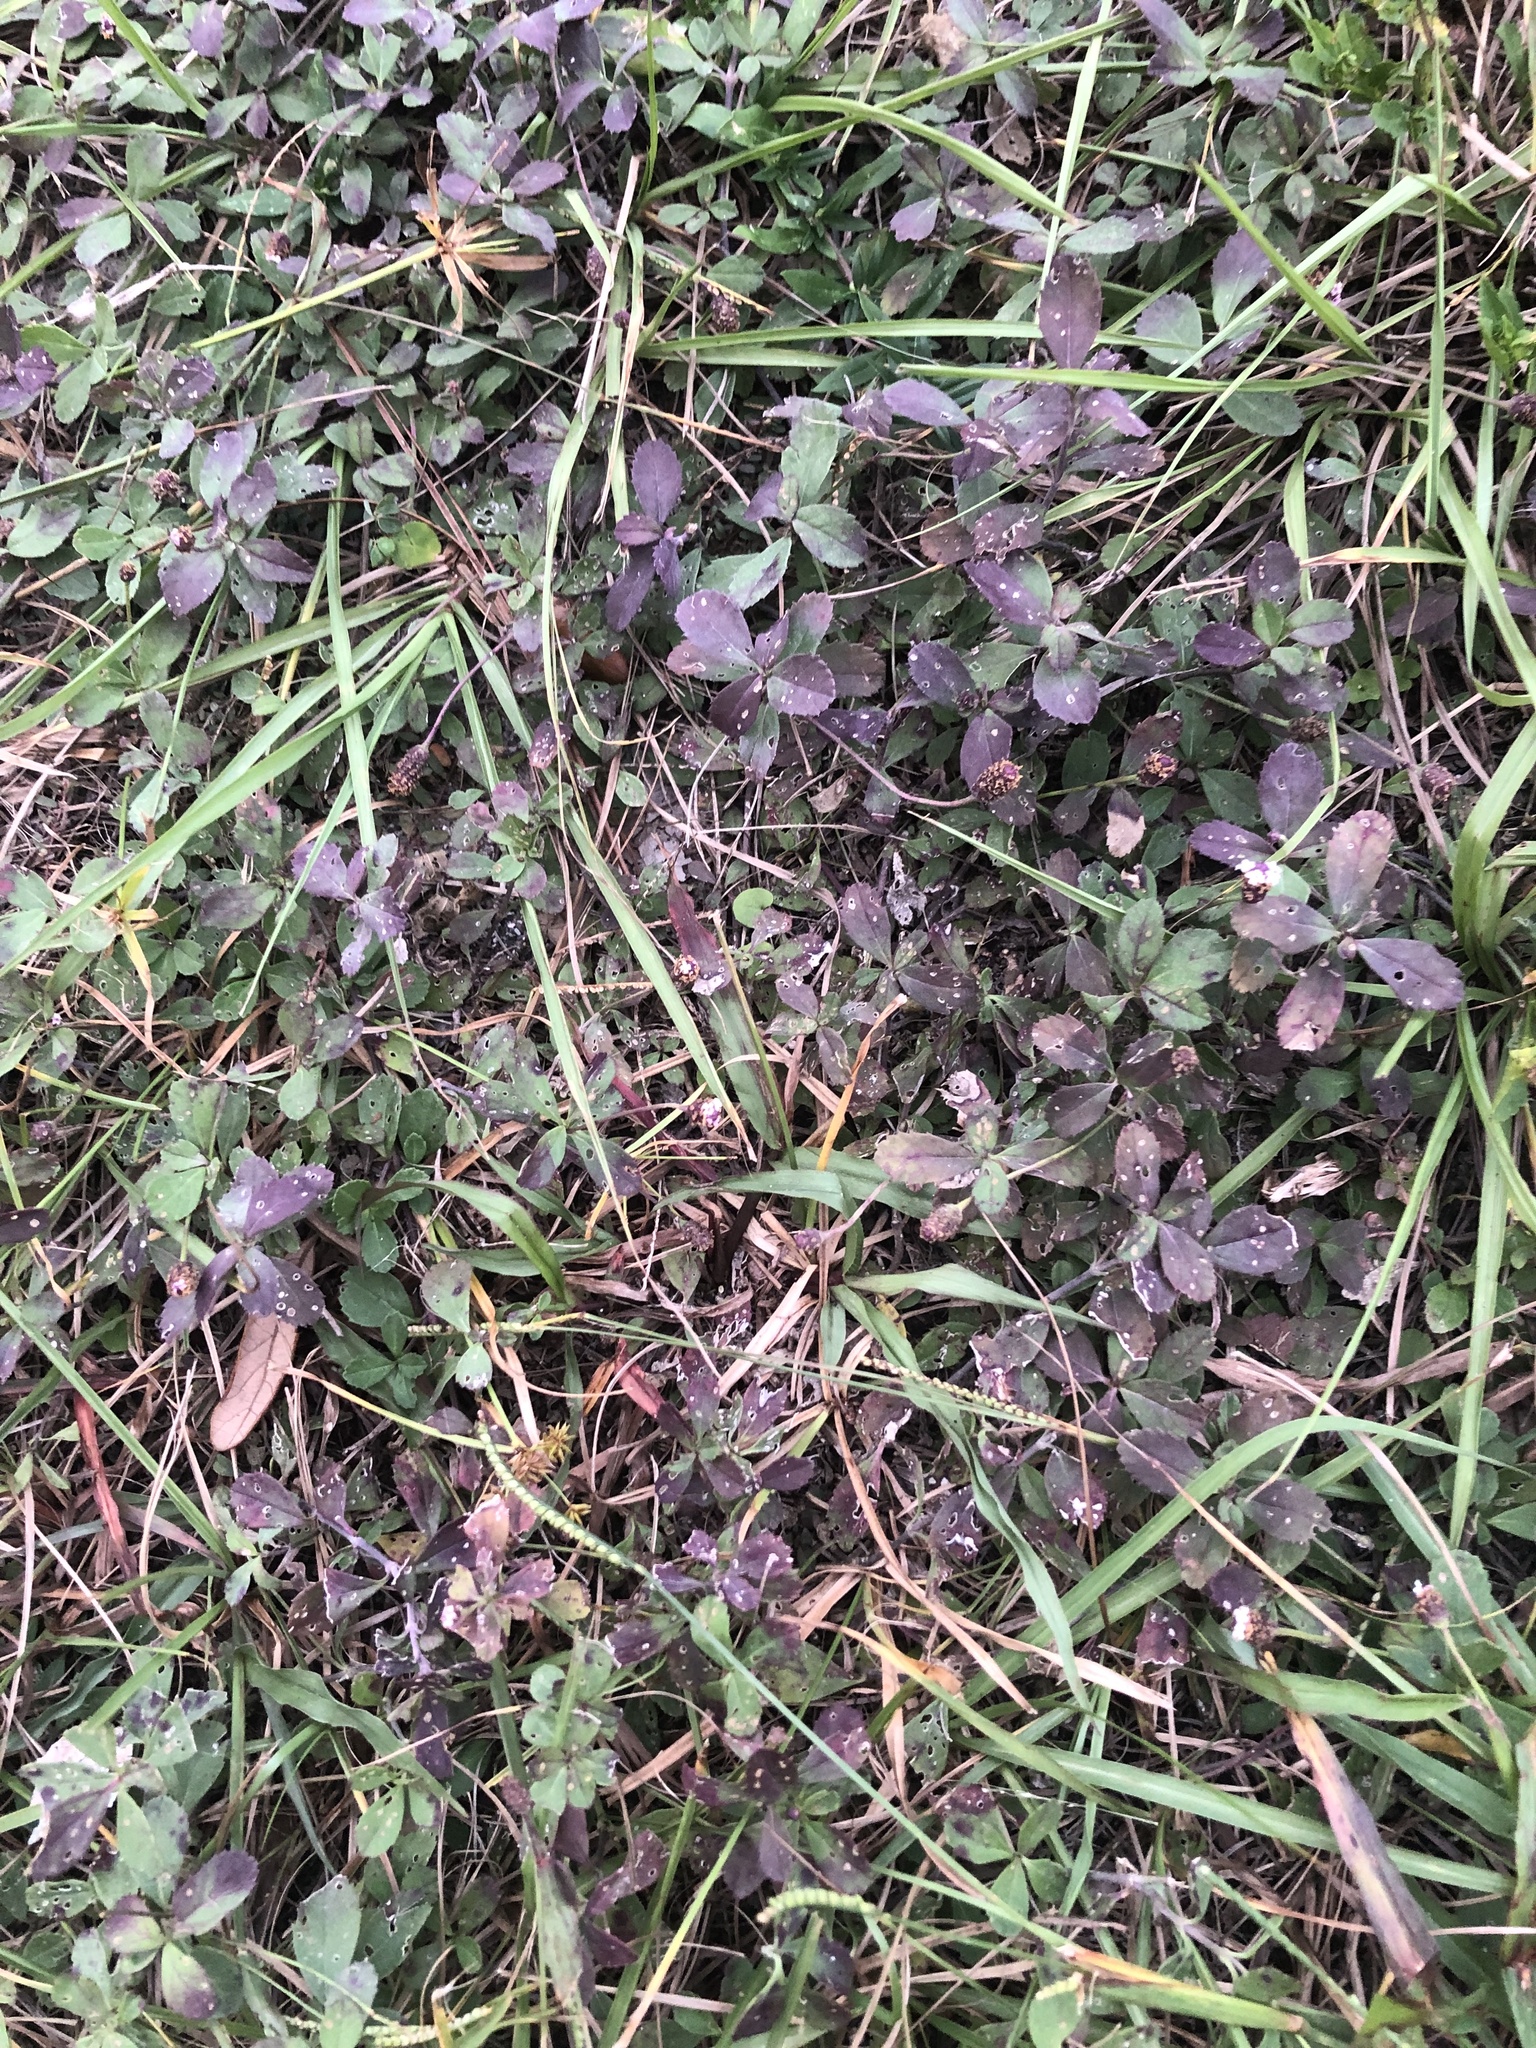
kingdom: Plantae
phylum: Tracheophyta
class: Magnoliopsida
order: Lamiales
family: Verbenaceae
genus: Phyla
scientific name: Phyla nodiflora
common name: Frogfruit
